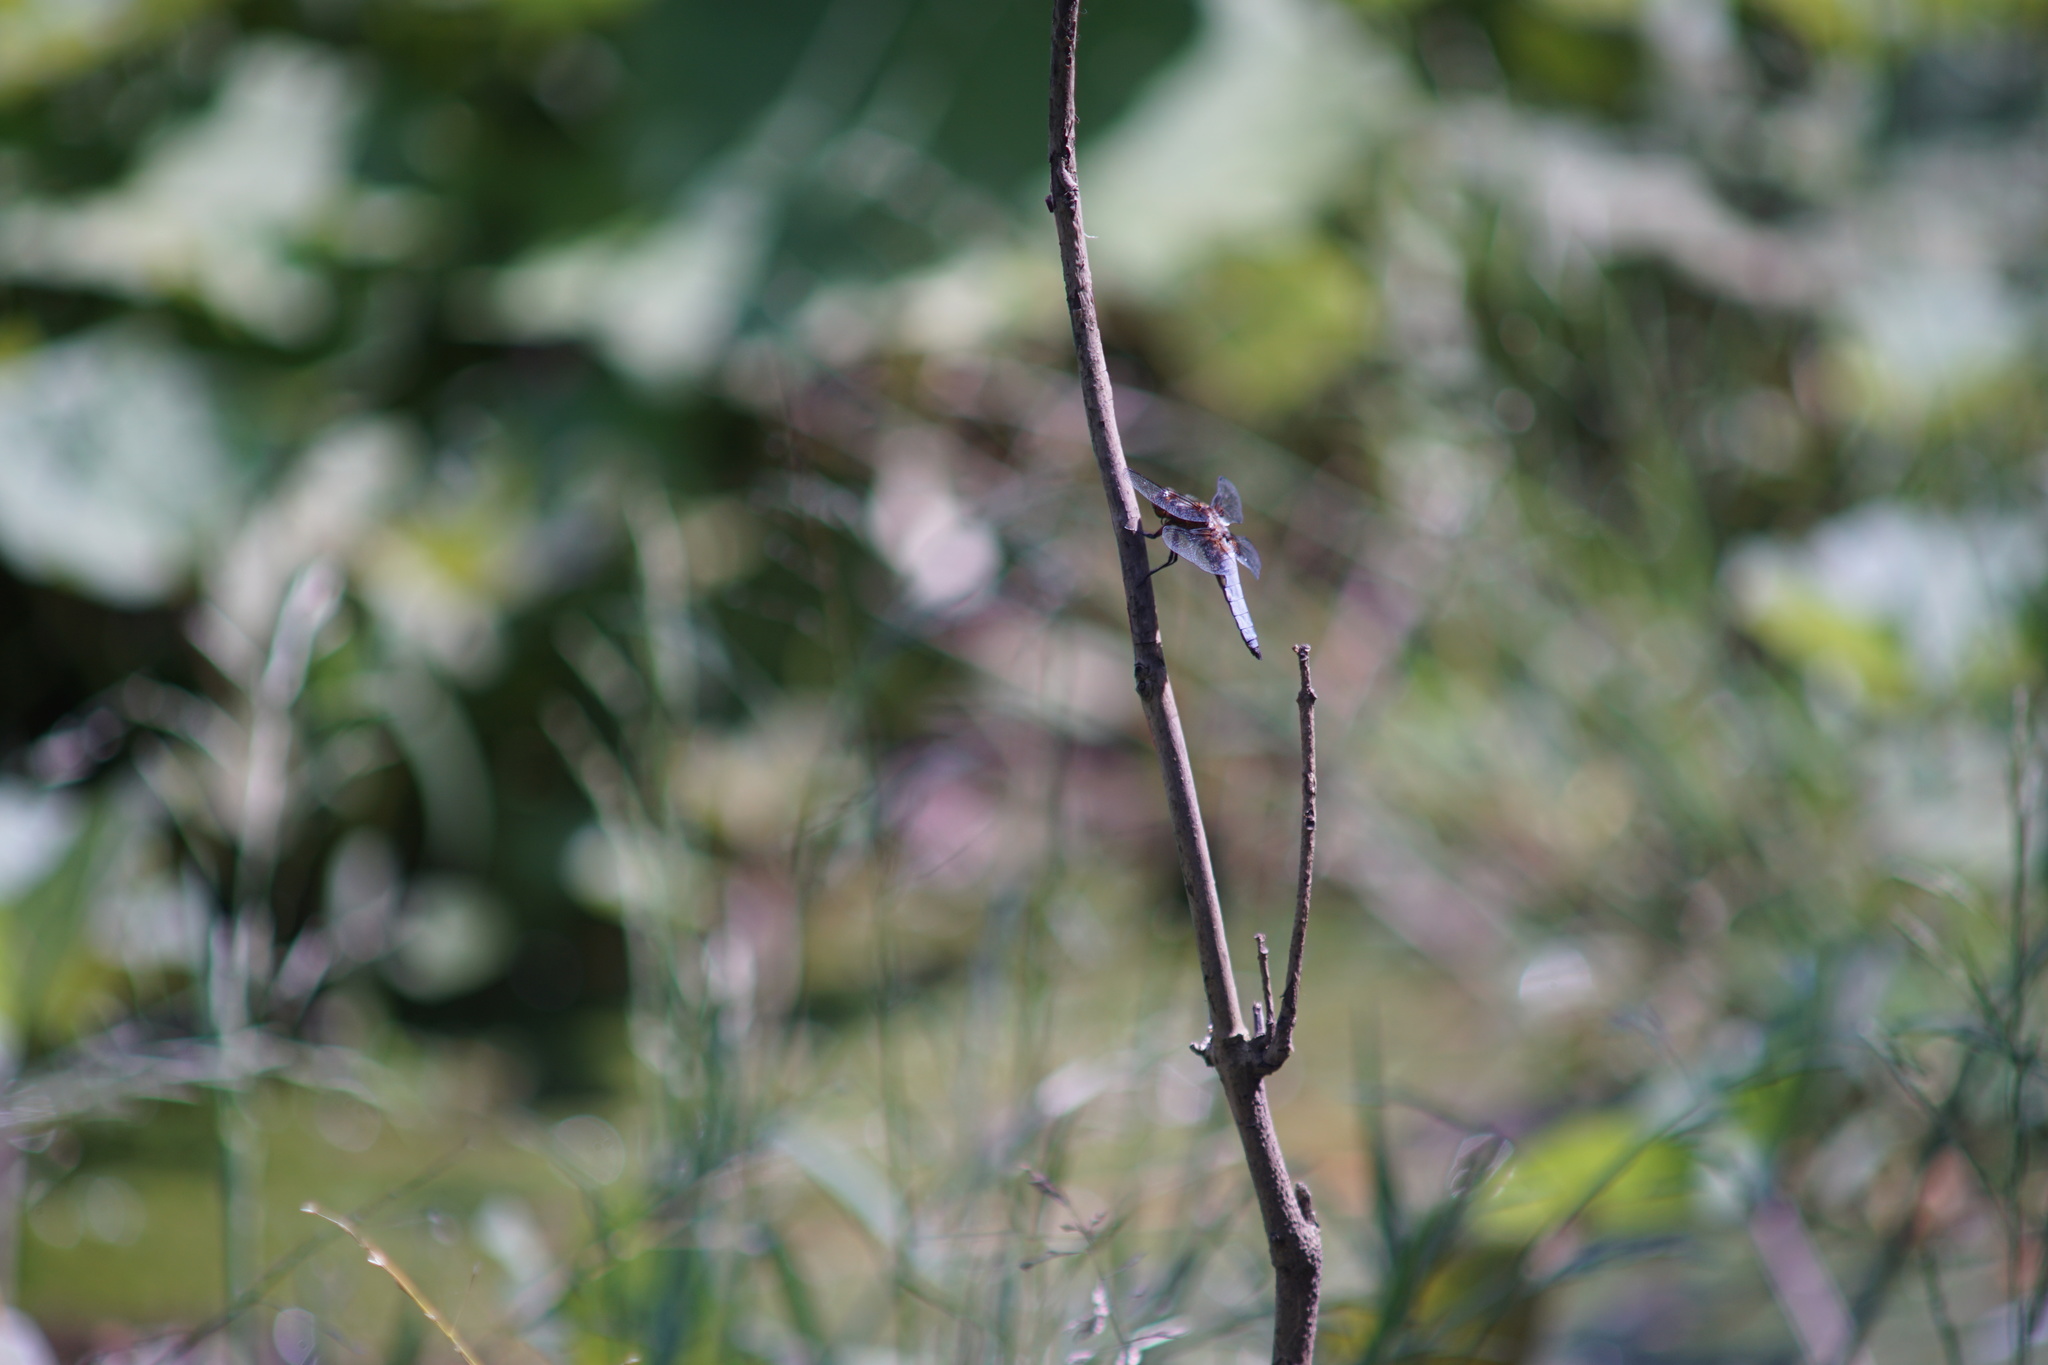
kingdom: Animalia
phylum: Arthropoda
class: Insecta
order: Odonata
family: Libellulidae
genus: Libellula
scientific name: Libellula depressa
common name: Broad-bodied chaser
